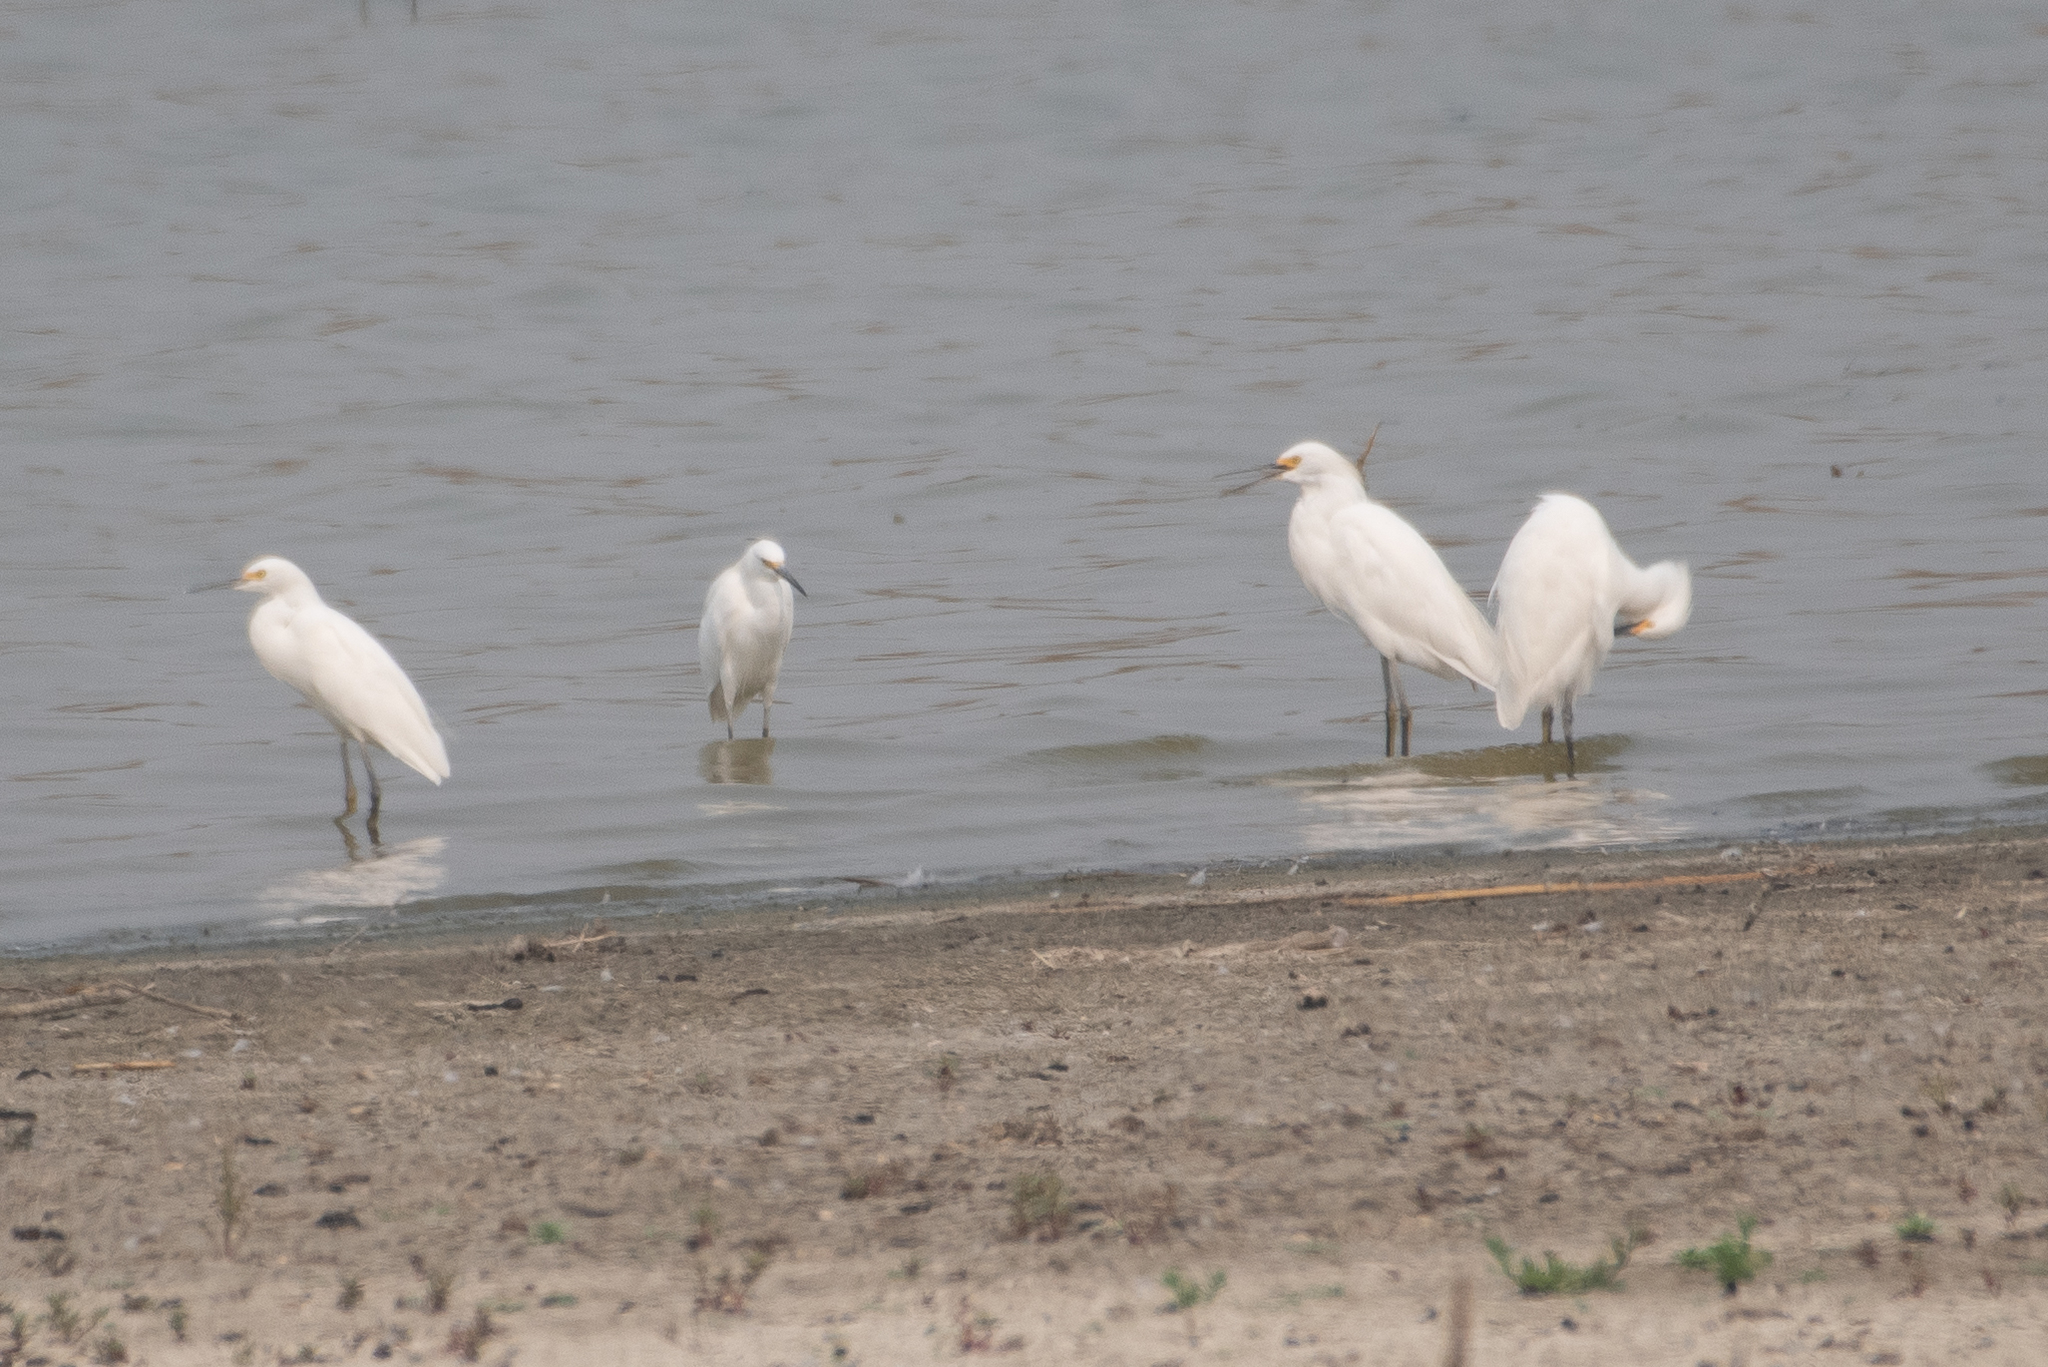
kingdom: Animalia
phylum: Chordata
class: Aves
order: Pelecaniformes
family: Ardeidae
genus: Egretta
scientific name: Egretta thula
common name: Snowy egret
